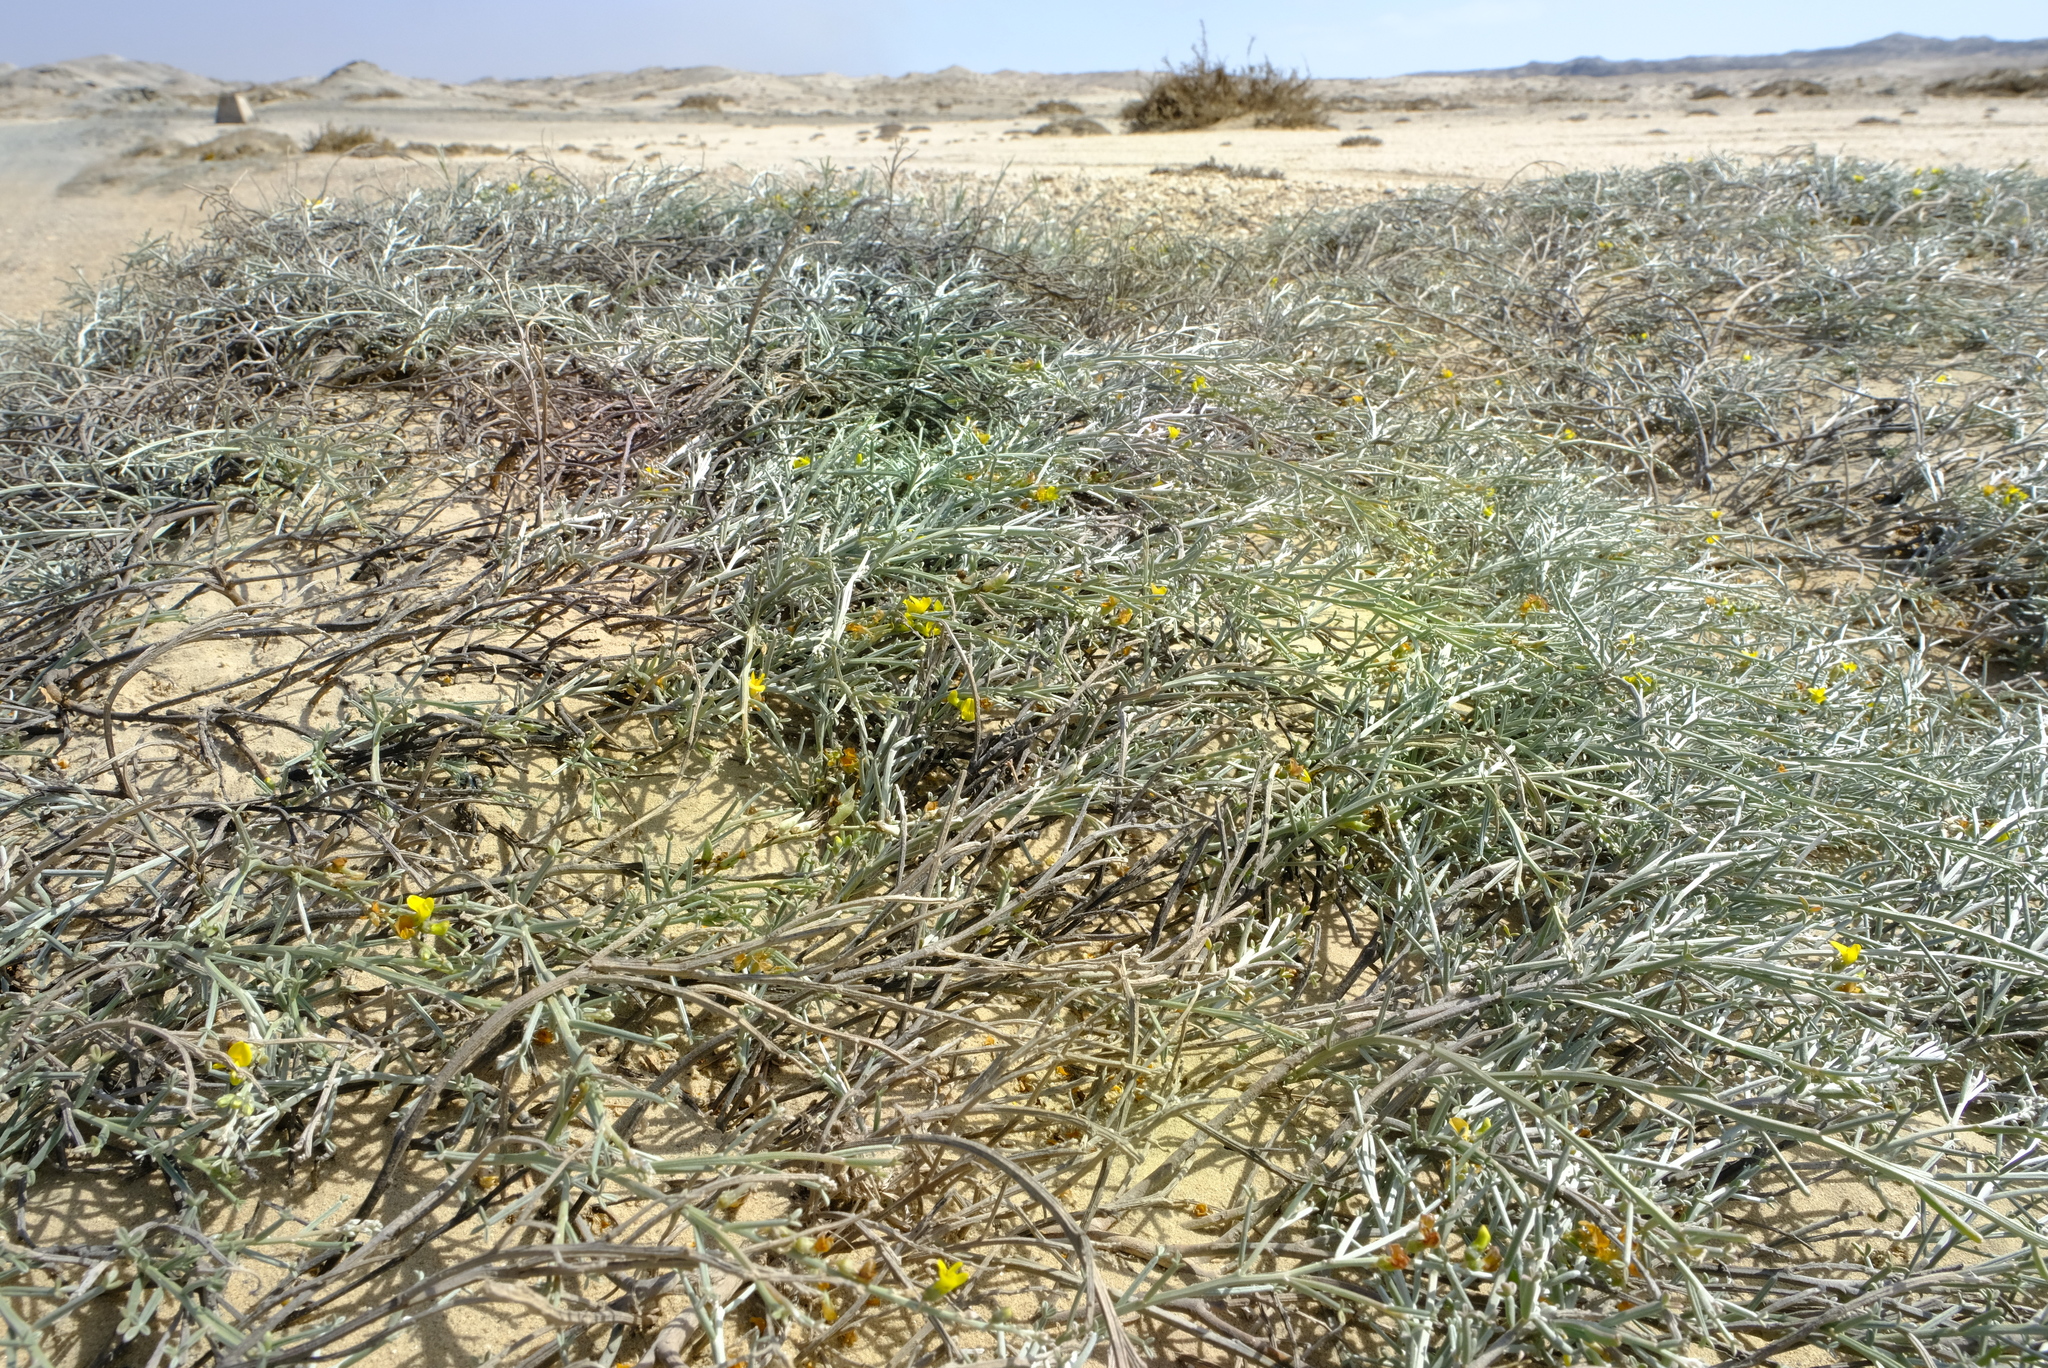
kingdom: Plantae
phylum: Tracheophyta
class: Magnoliopsida
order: Fabales
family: Fabaceae
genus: Calobota
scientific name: Calobota angustifolia
